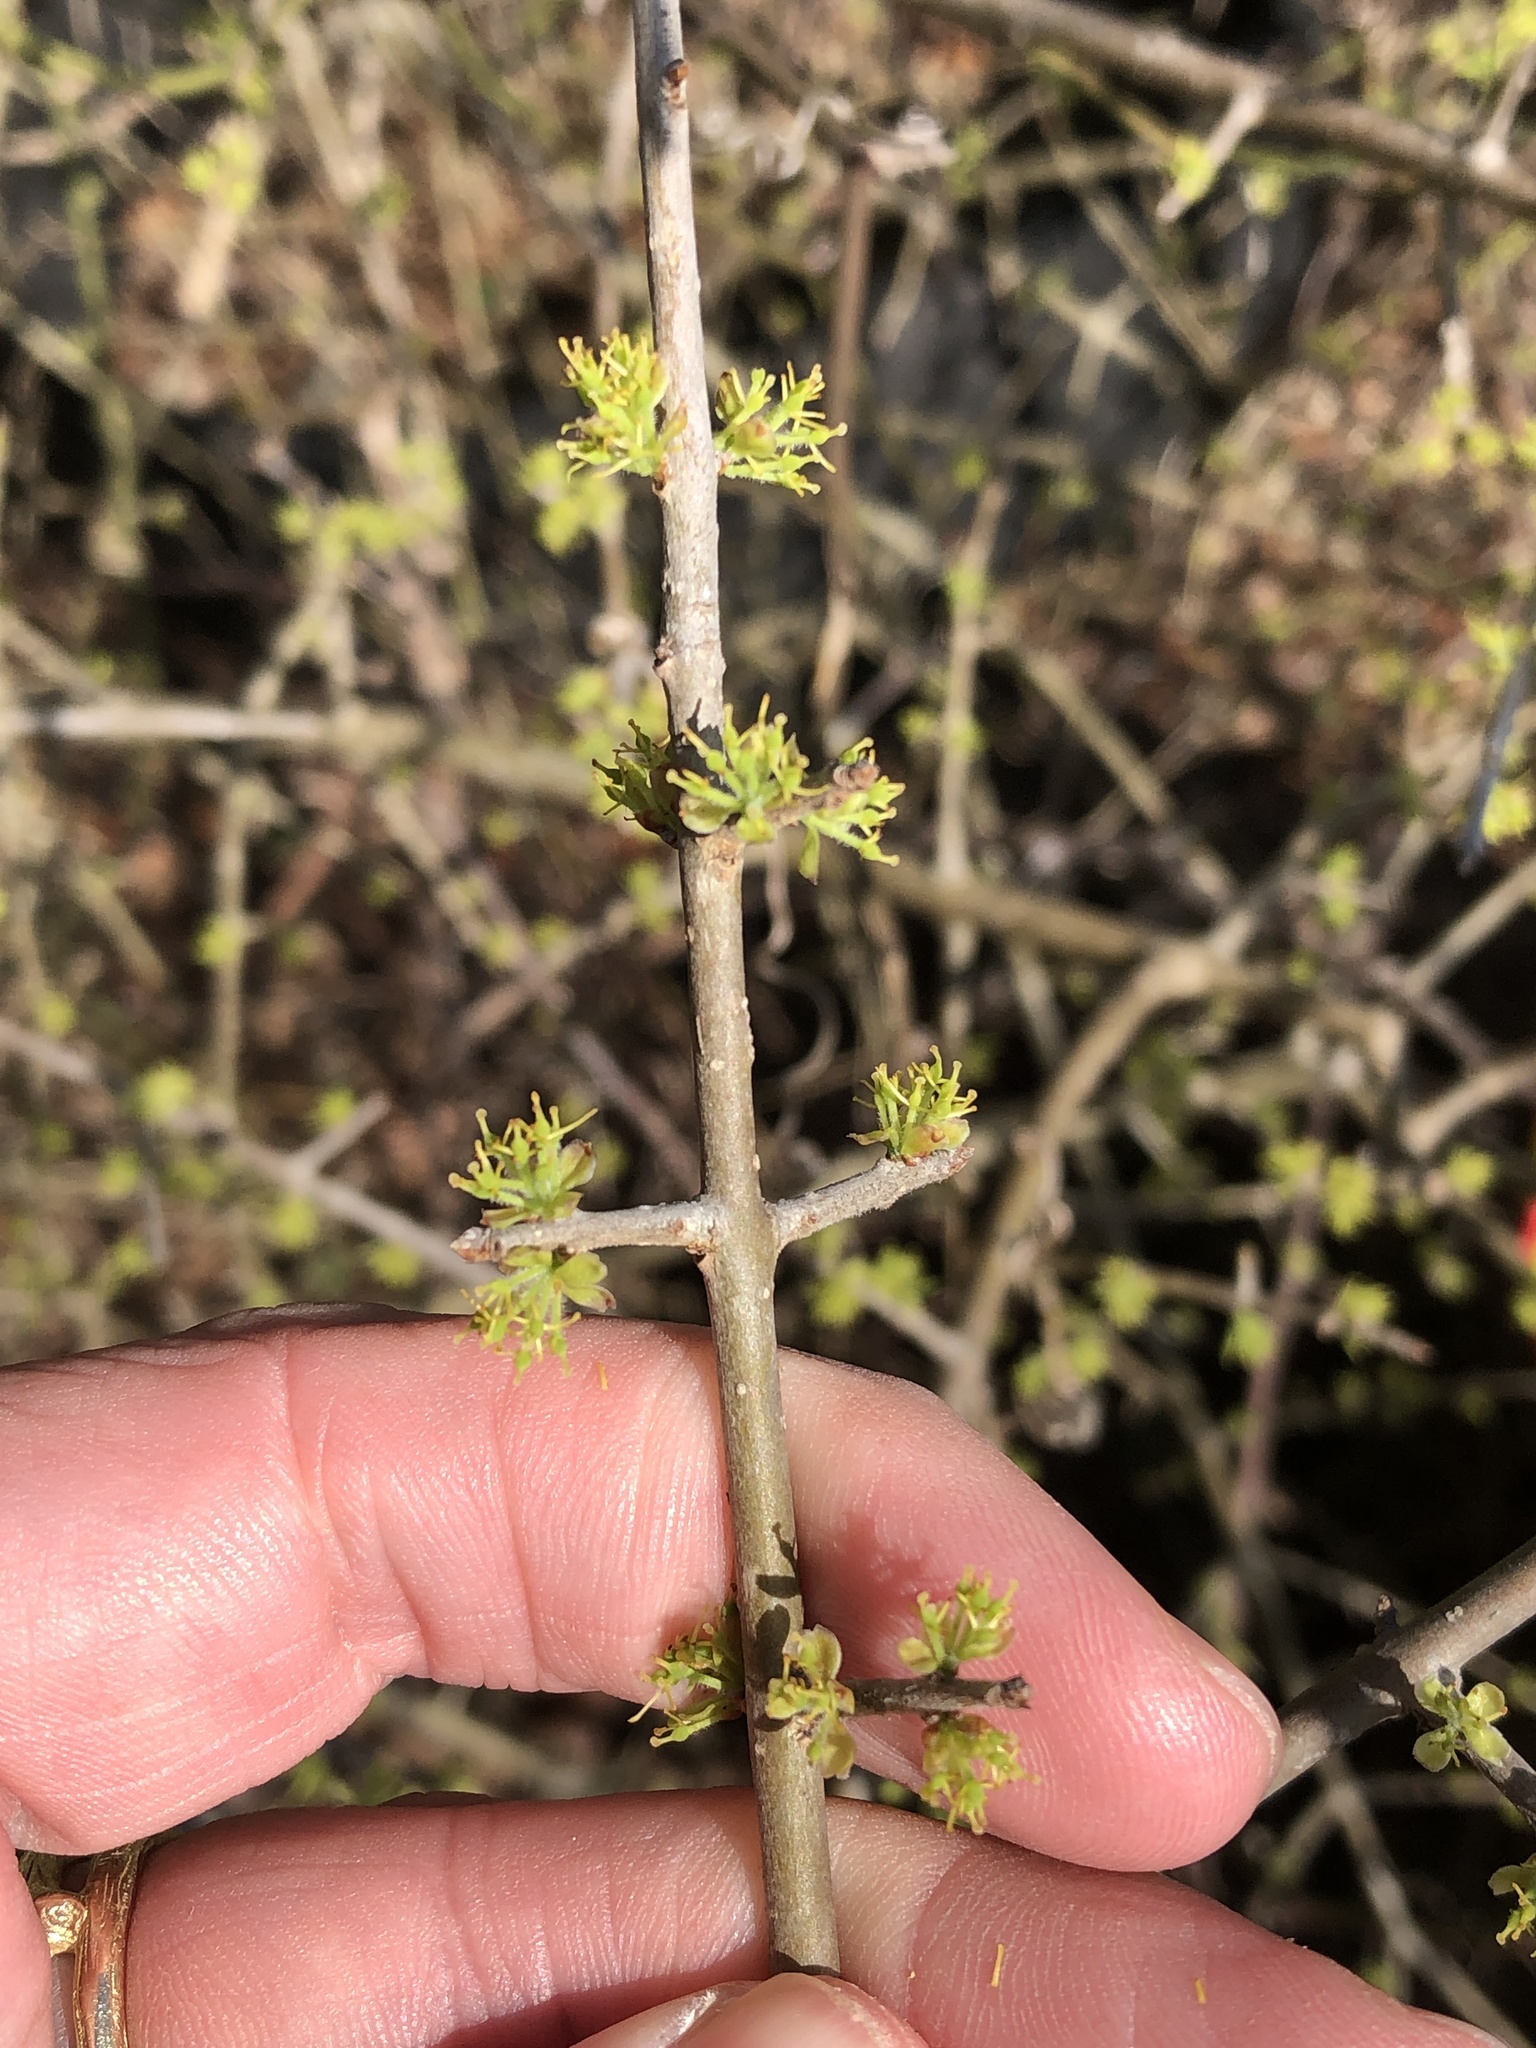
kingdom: Plantae
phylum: Tracheophyta
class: Magnoliopsida
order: Lamiales
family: Oleaceae
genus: Forestiera
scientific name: Forestiera pubescens
